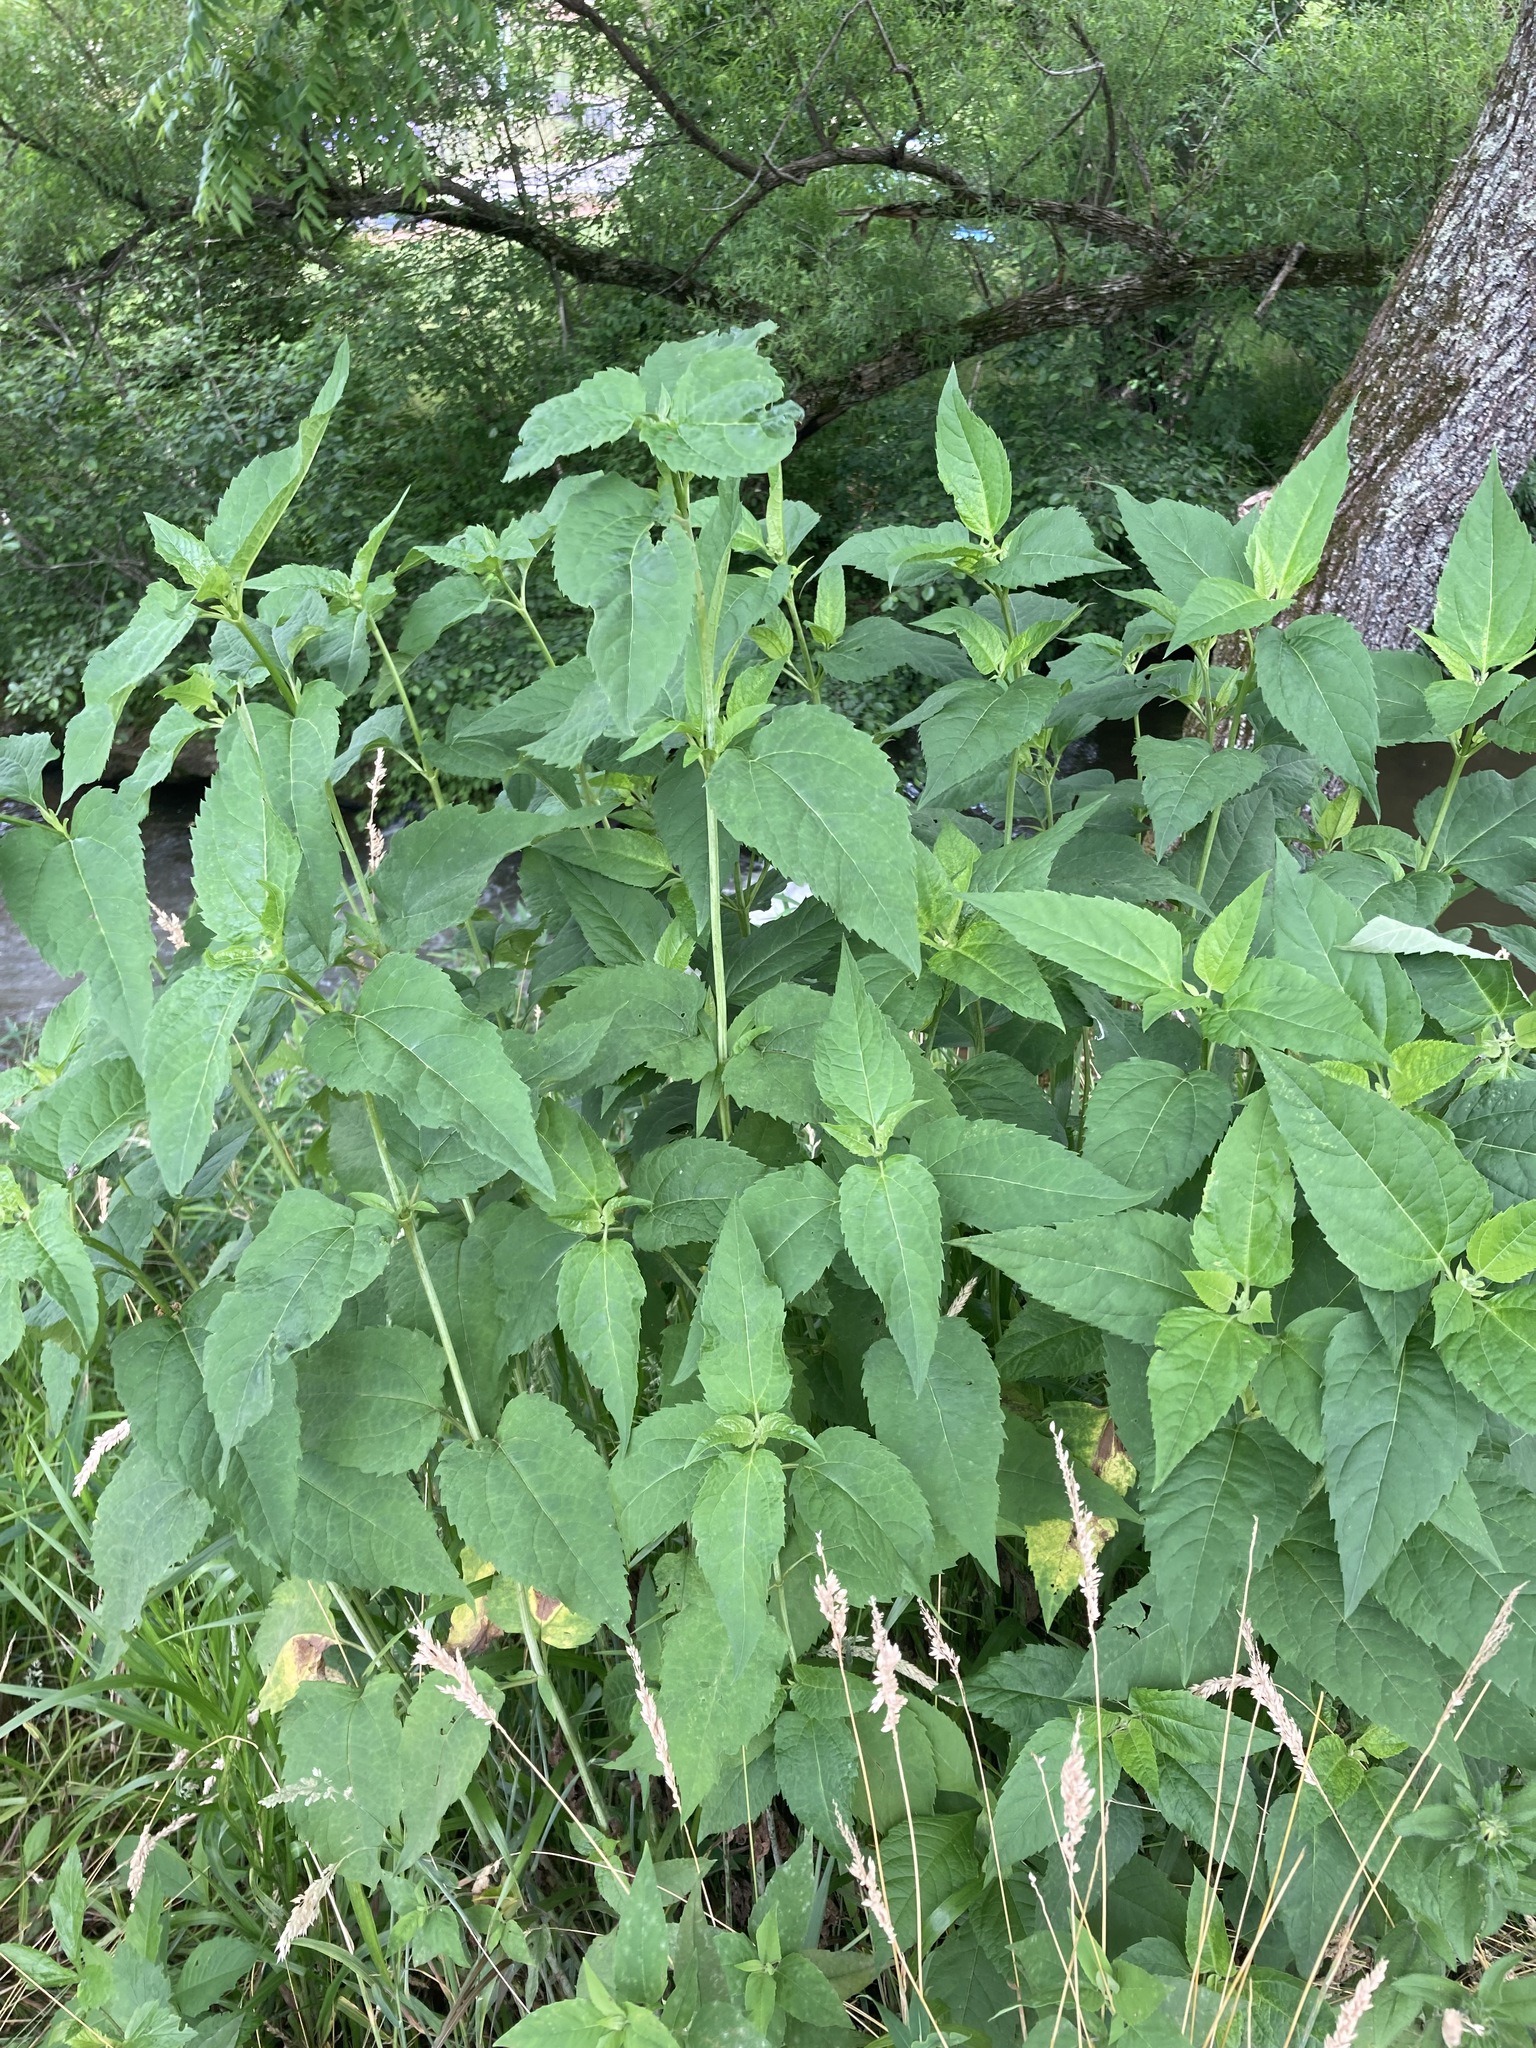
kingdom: Plantae
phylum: Tracheophyta
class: Magnoliopsida
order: Asterales
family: Asteraceae
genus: Heliopsis
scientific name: Heliopsis helianthoides
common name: False sunflower
